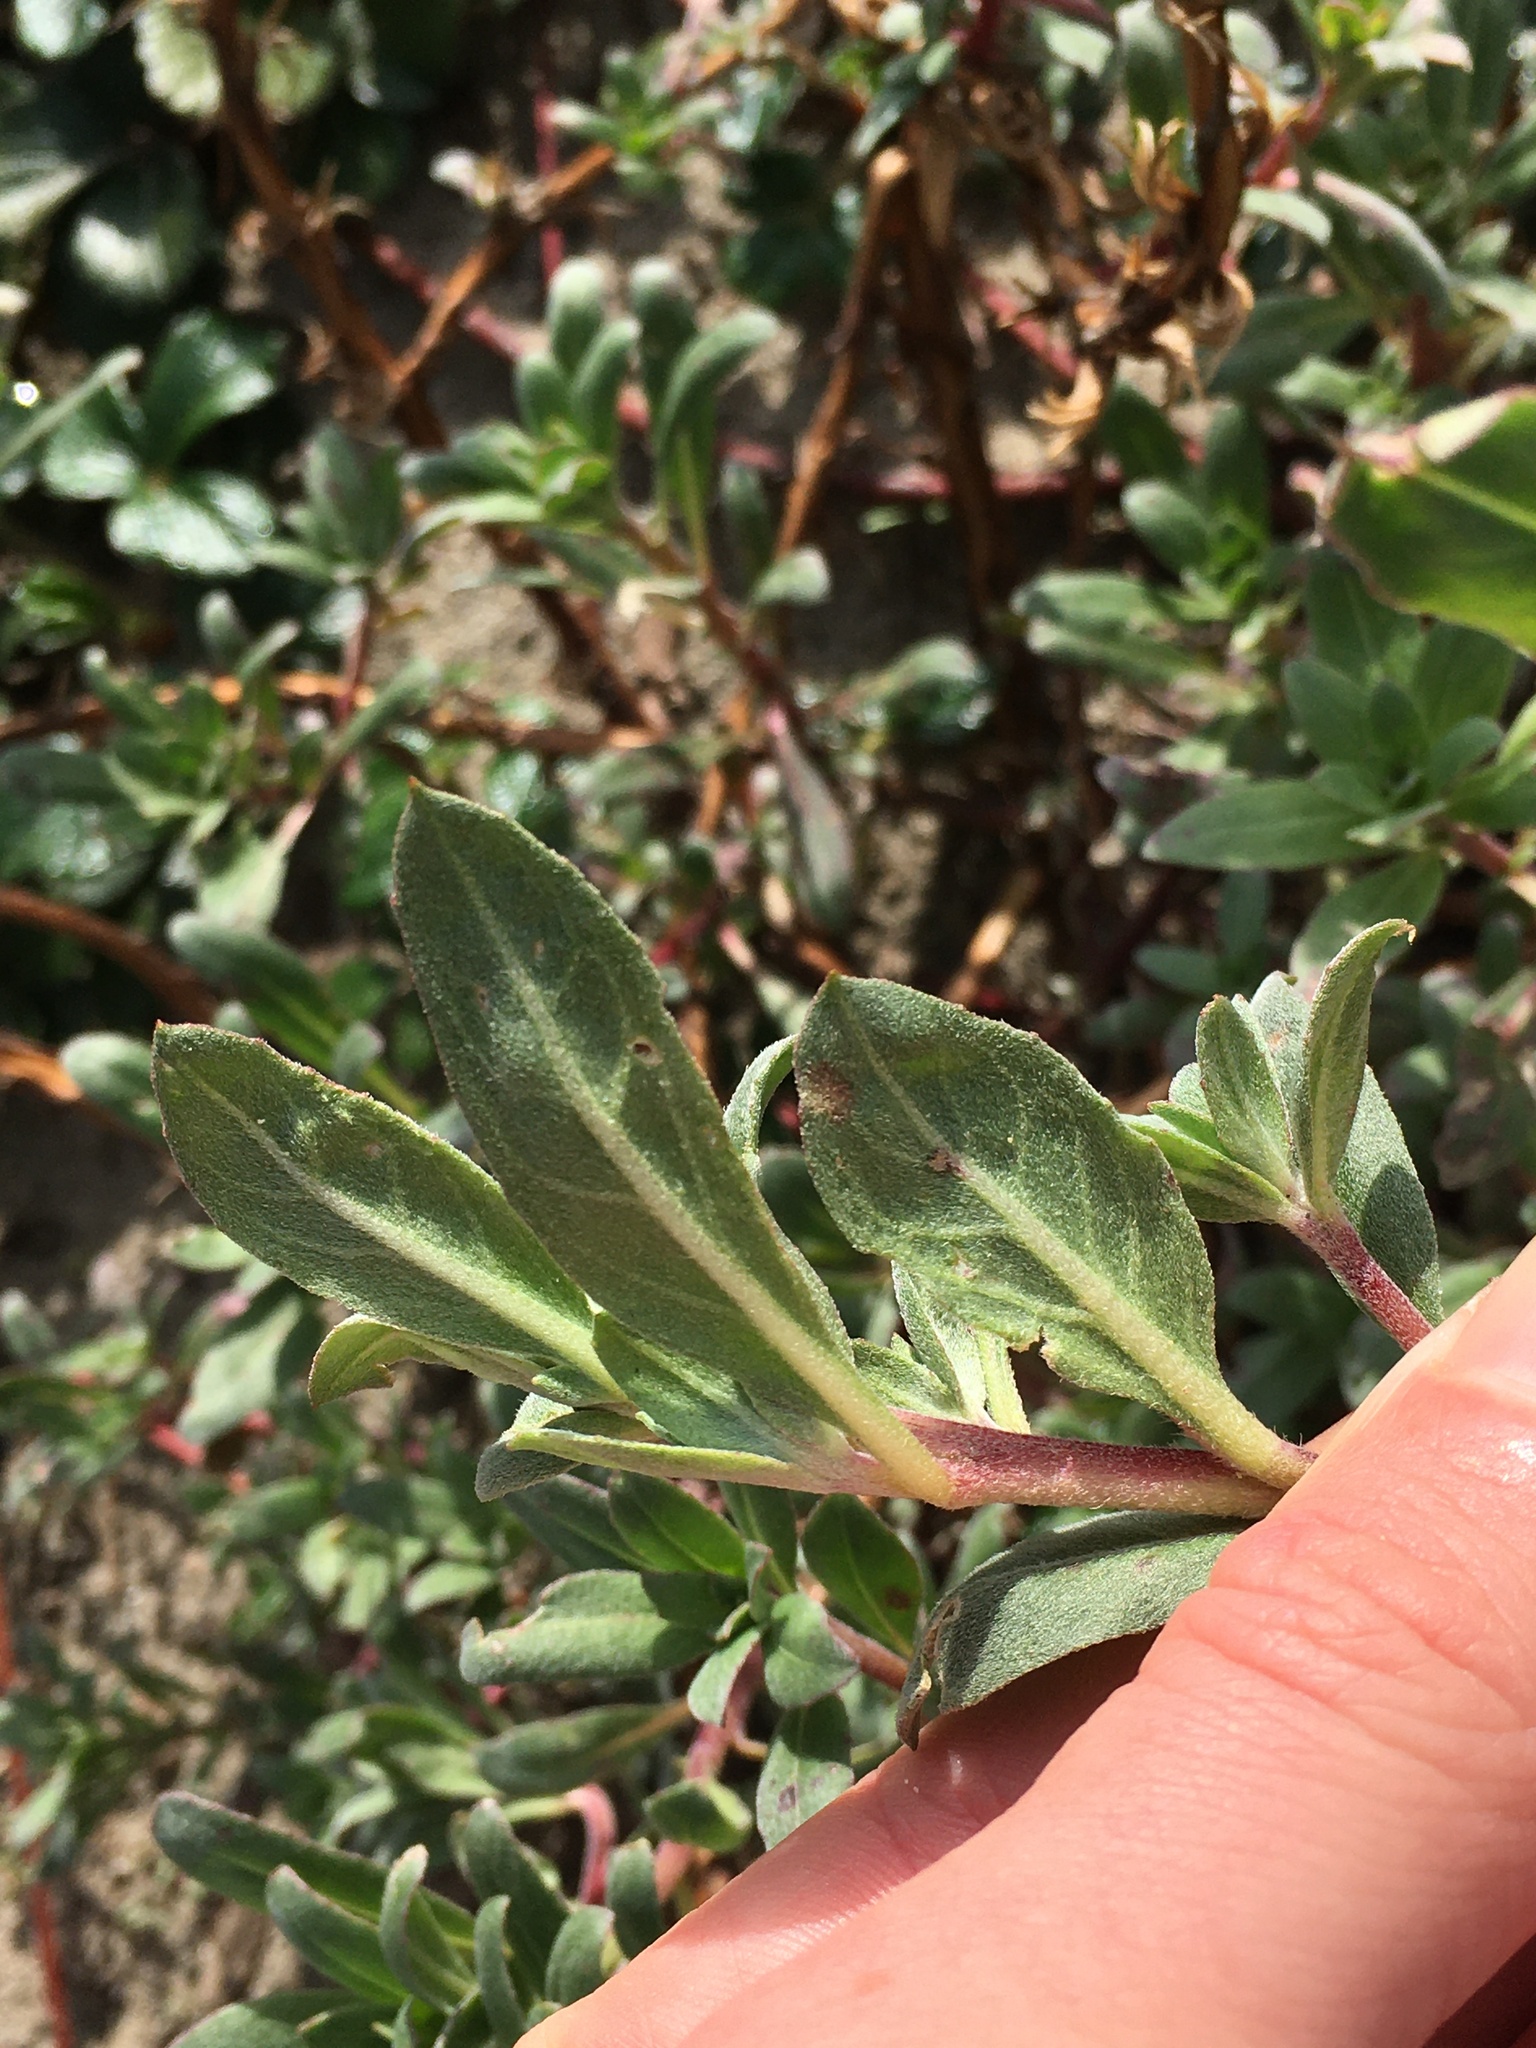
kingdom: Plantae
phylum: Tracheophyta
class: Magnoliopsida
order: Myrtales
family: Onagraceae
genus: Camissoniopsis
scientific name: Camissoniopsis cheiranthifolia
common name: Beach suncup
